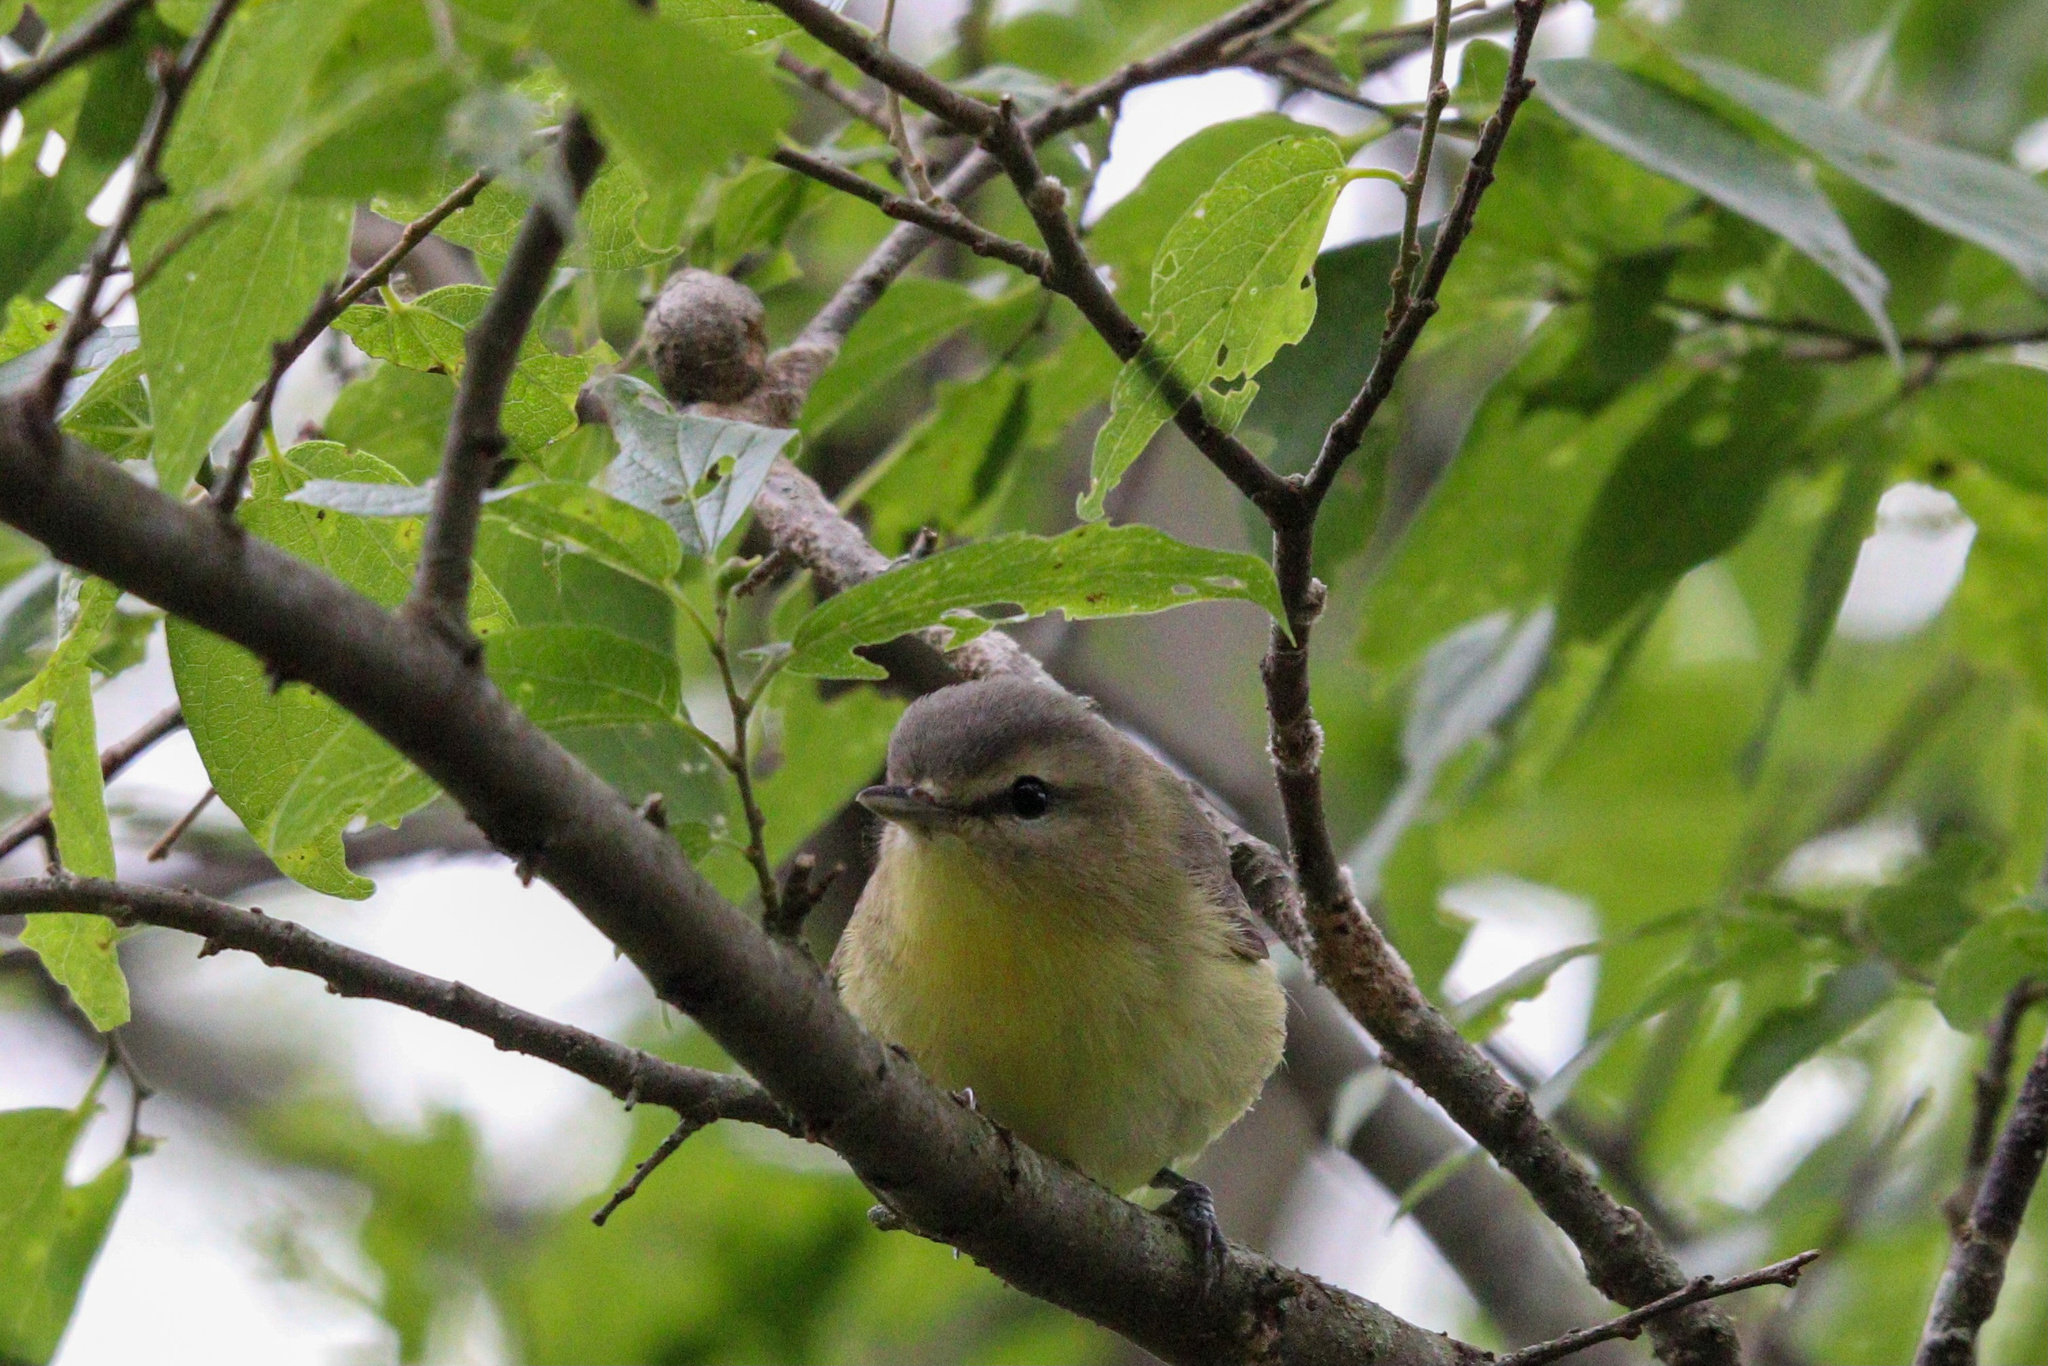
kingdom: Animalia
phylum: Chordata
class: Aves
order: Passeriformes
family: Vireonidae
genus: Vireo
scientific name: Vireo philadelphicus
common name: Philadelphia vireo
